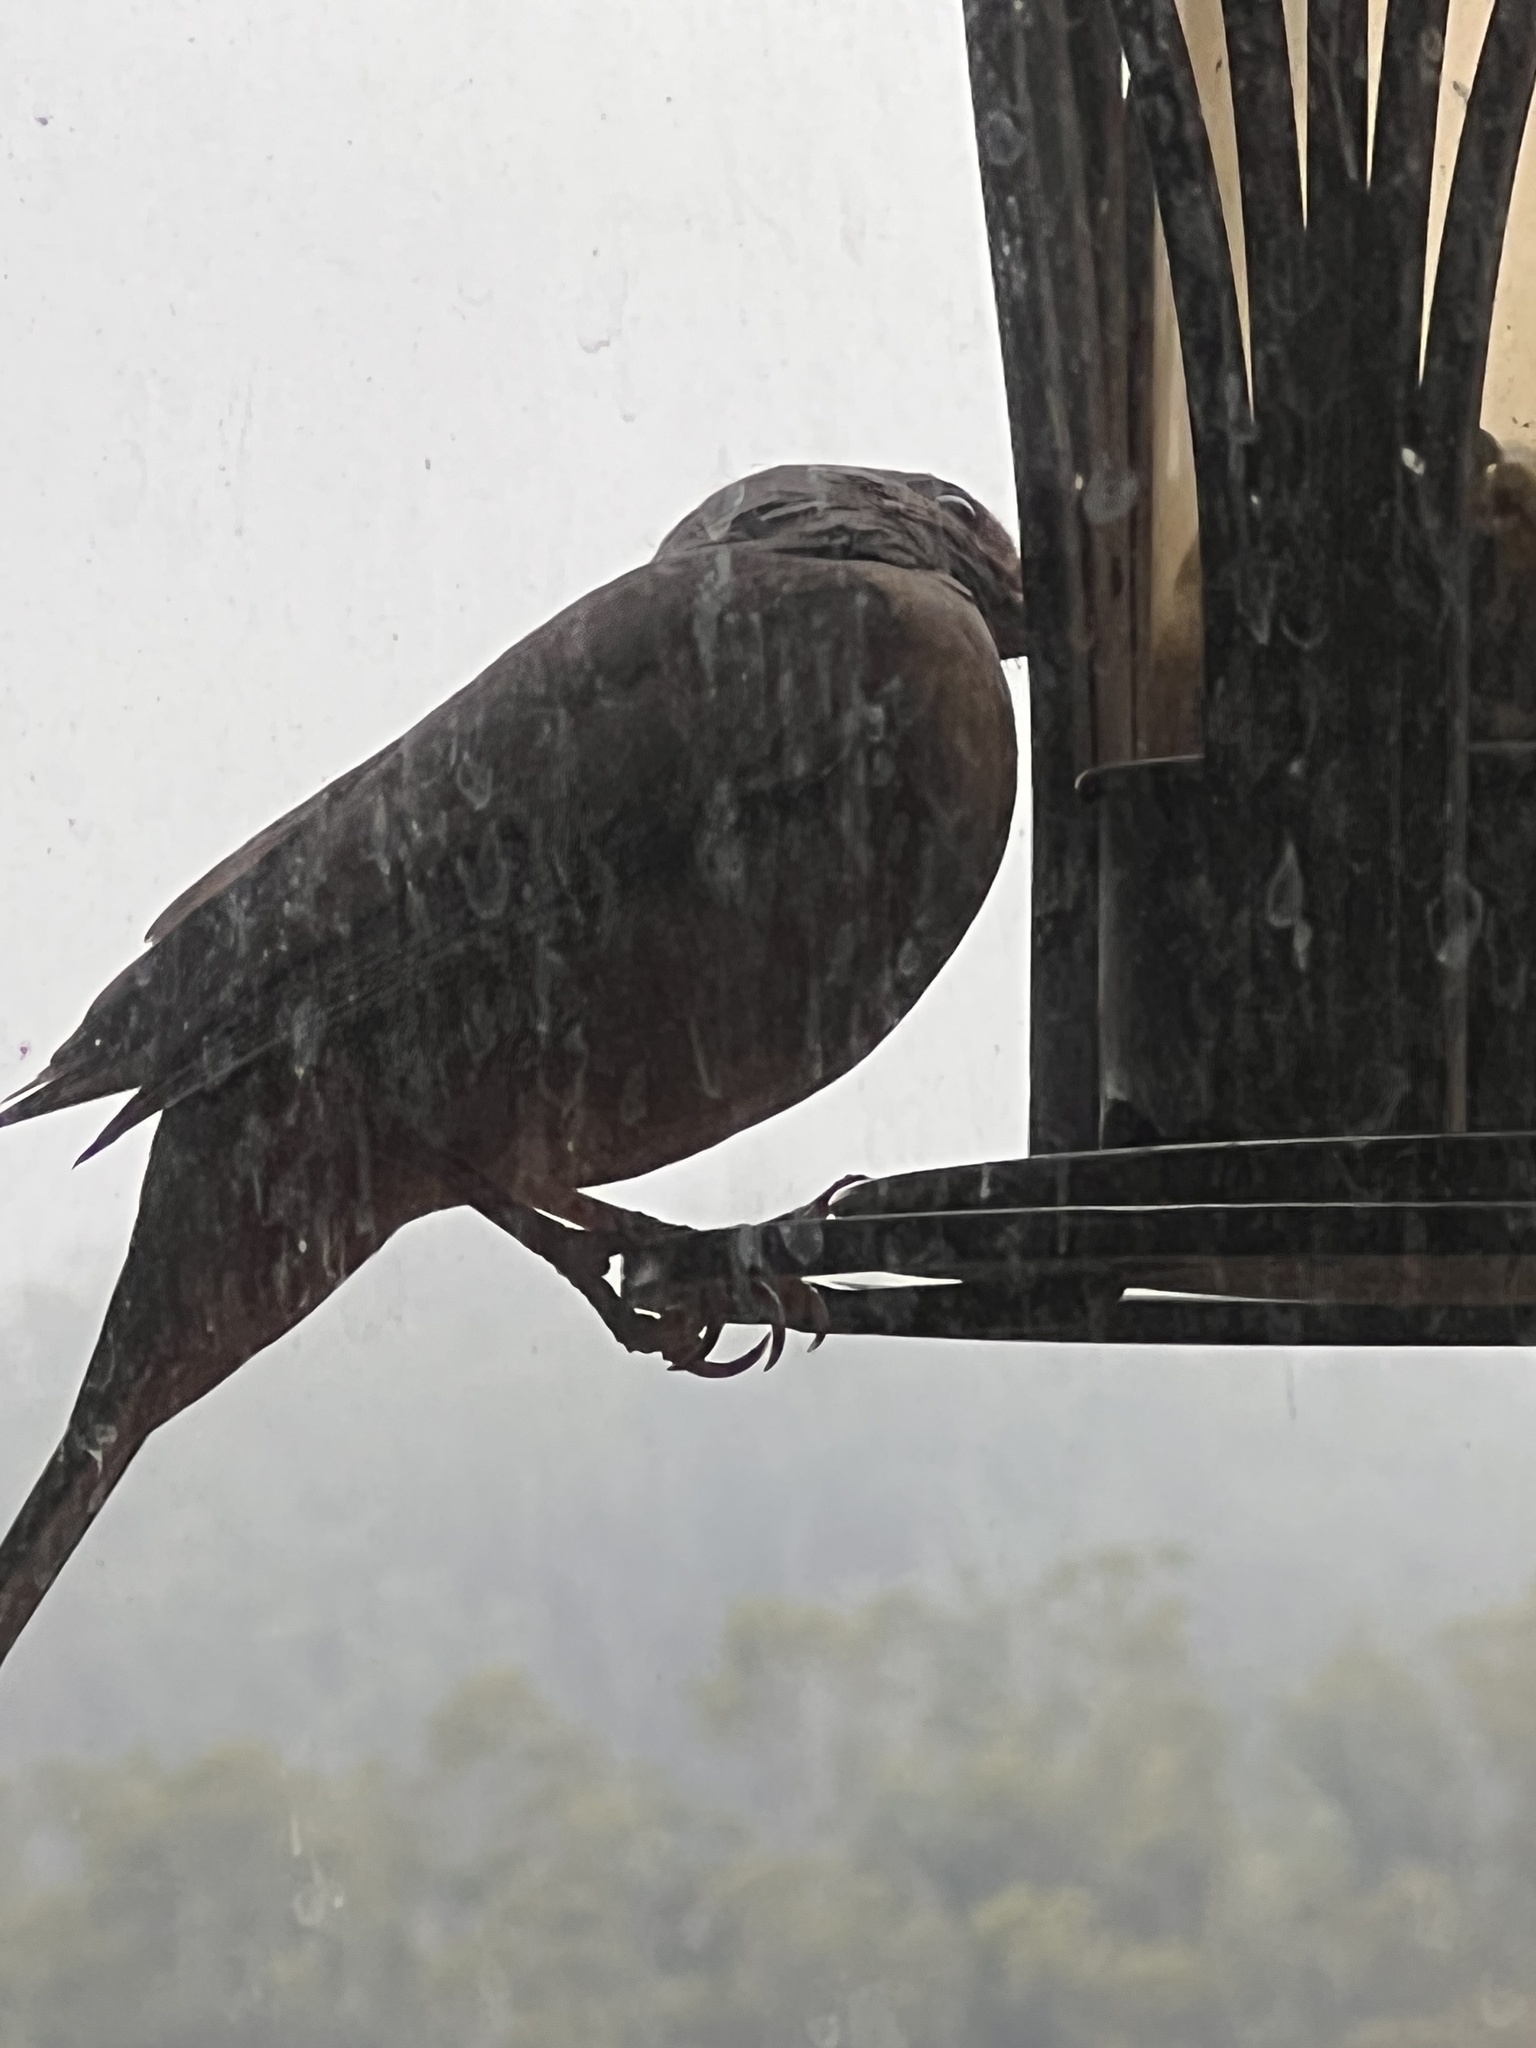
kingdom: Animalia
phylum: Chordata
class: Aves
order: Passeriformes
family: Passerellidae
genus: Melozone
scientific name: Melozone crissalis
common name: California towhee
